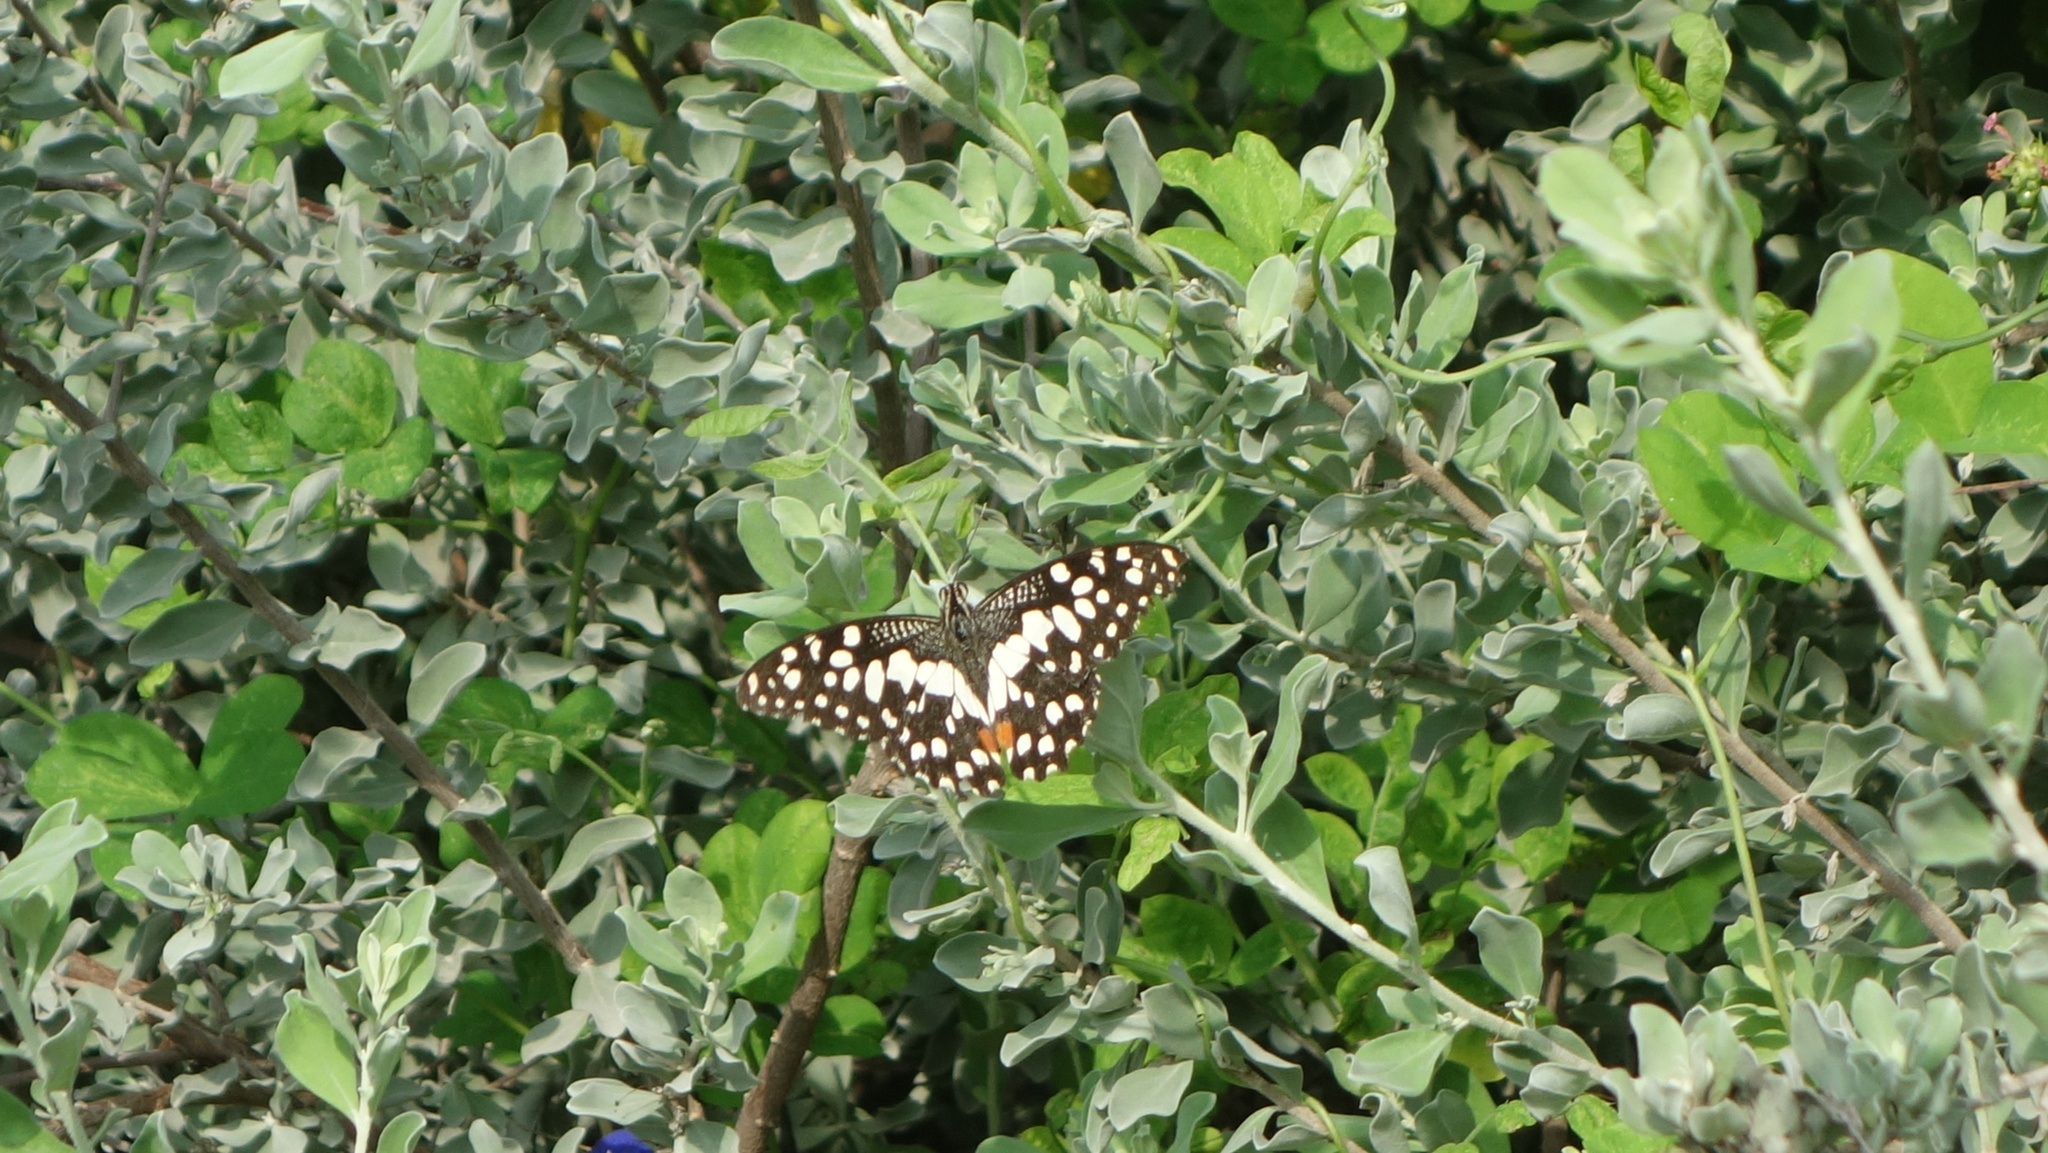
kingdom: Animalia
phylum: Arthropoda
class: Insecta
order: Lepidoptera
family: Papilionidae
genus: Papilio
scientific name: Papilio demoleus
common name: Lime butterfly
